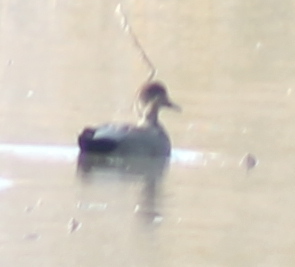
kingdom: Animalia
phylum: Chordata
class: Aves
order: Anseriformes
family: Anatidae
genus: Mareca
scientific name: Mareca strepera
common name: Gadwall
